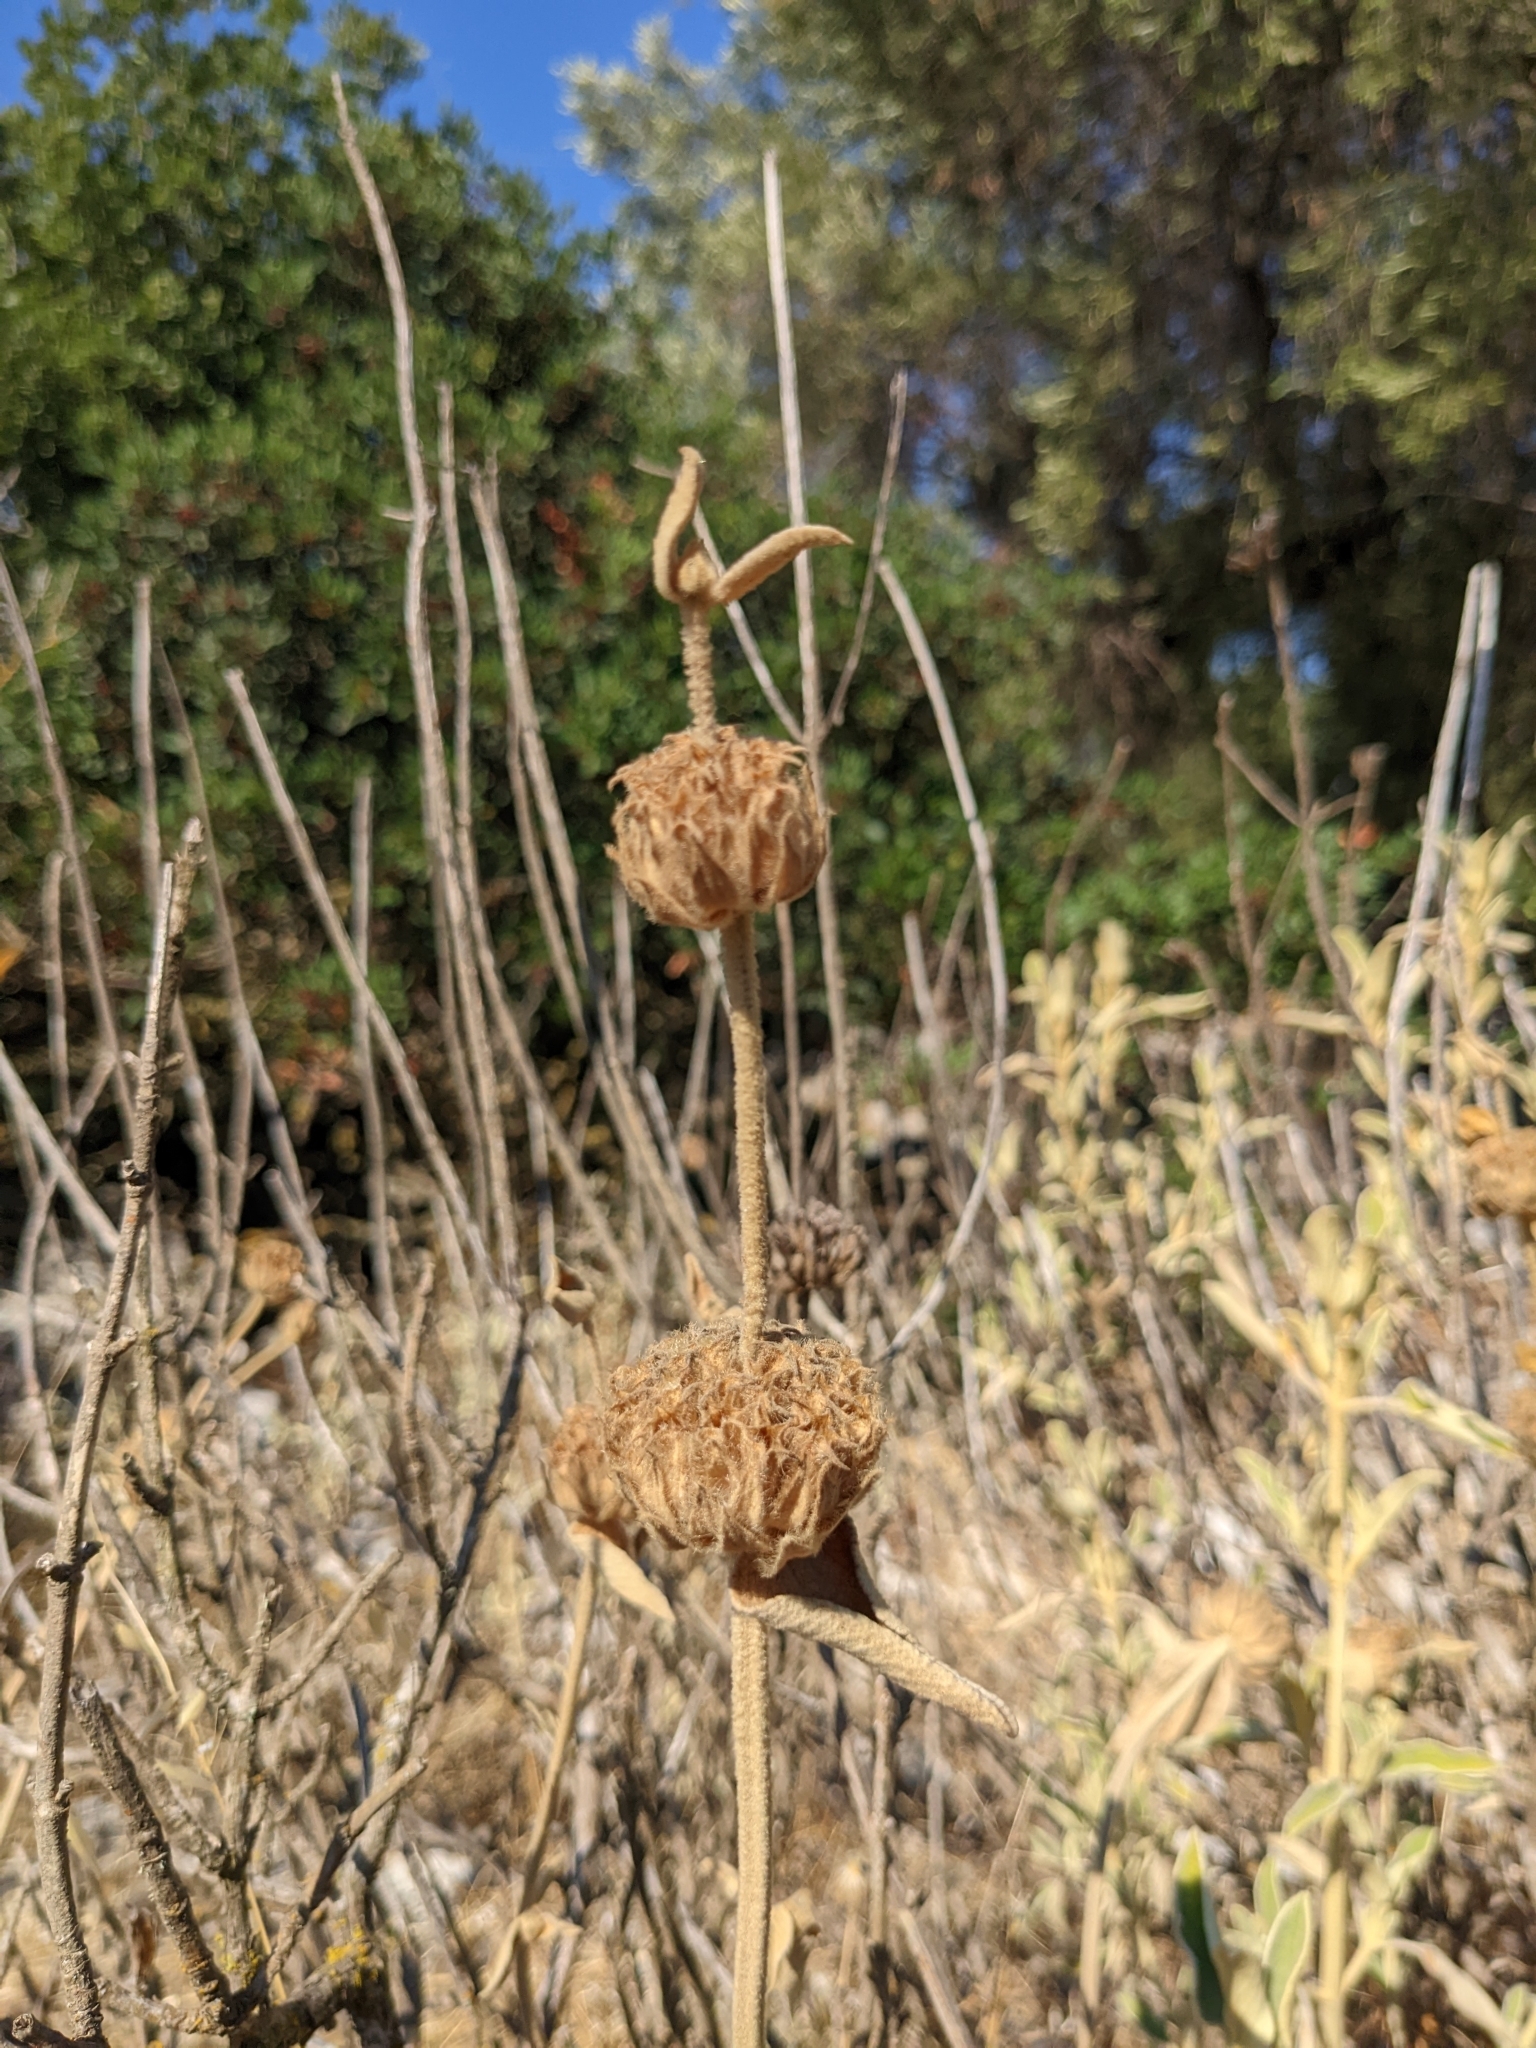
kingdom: Plantae
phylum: Tracheophyta
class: Magnoliopsida
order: Lamiales
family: Lamiaceae
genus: Phlomis
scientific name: Phlomis fruticosa
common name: Jerusalem sage
